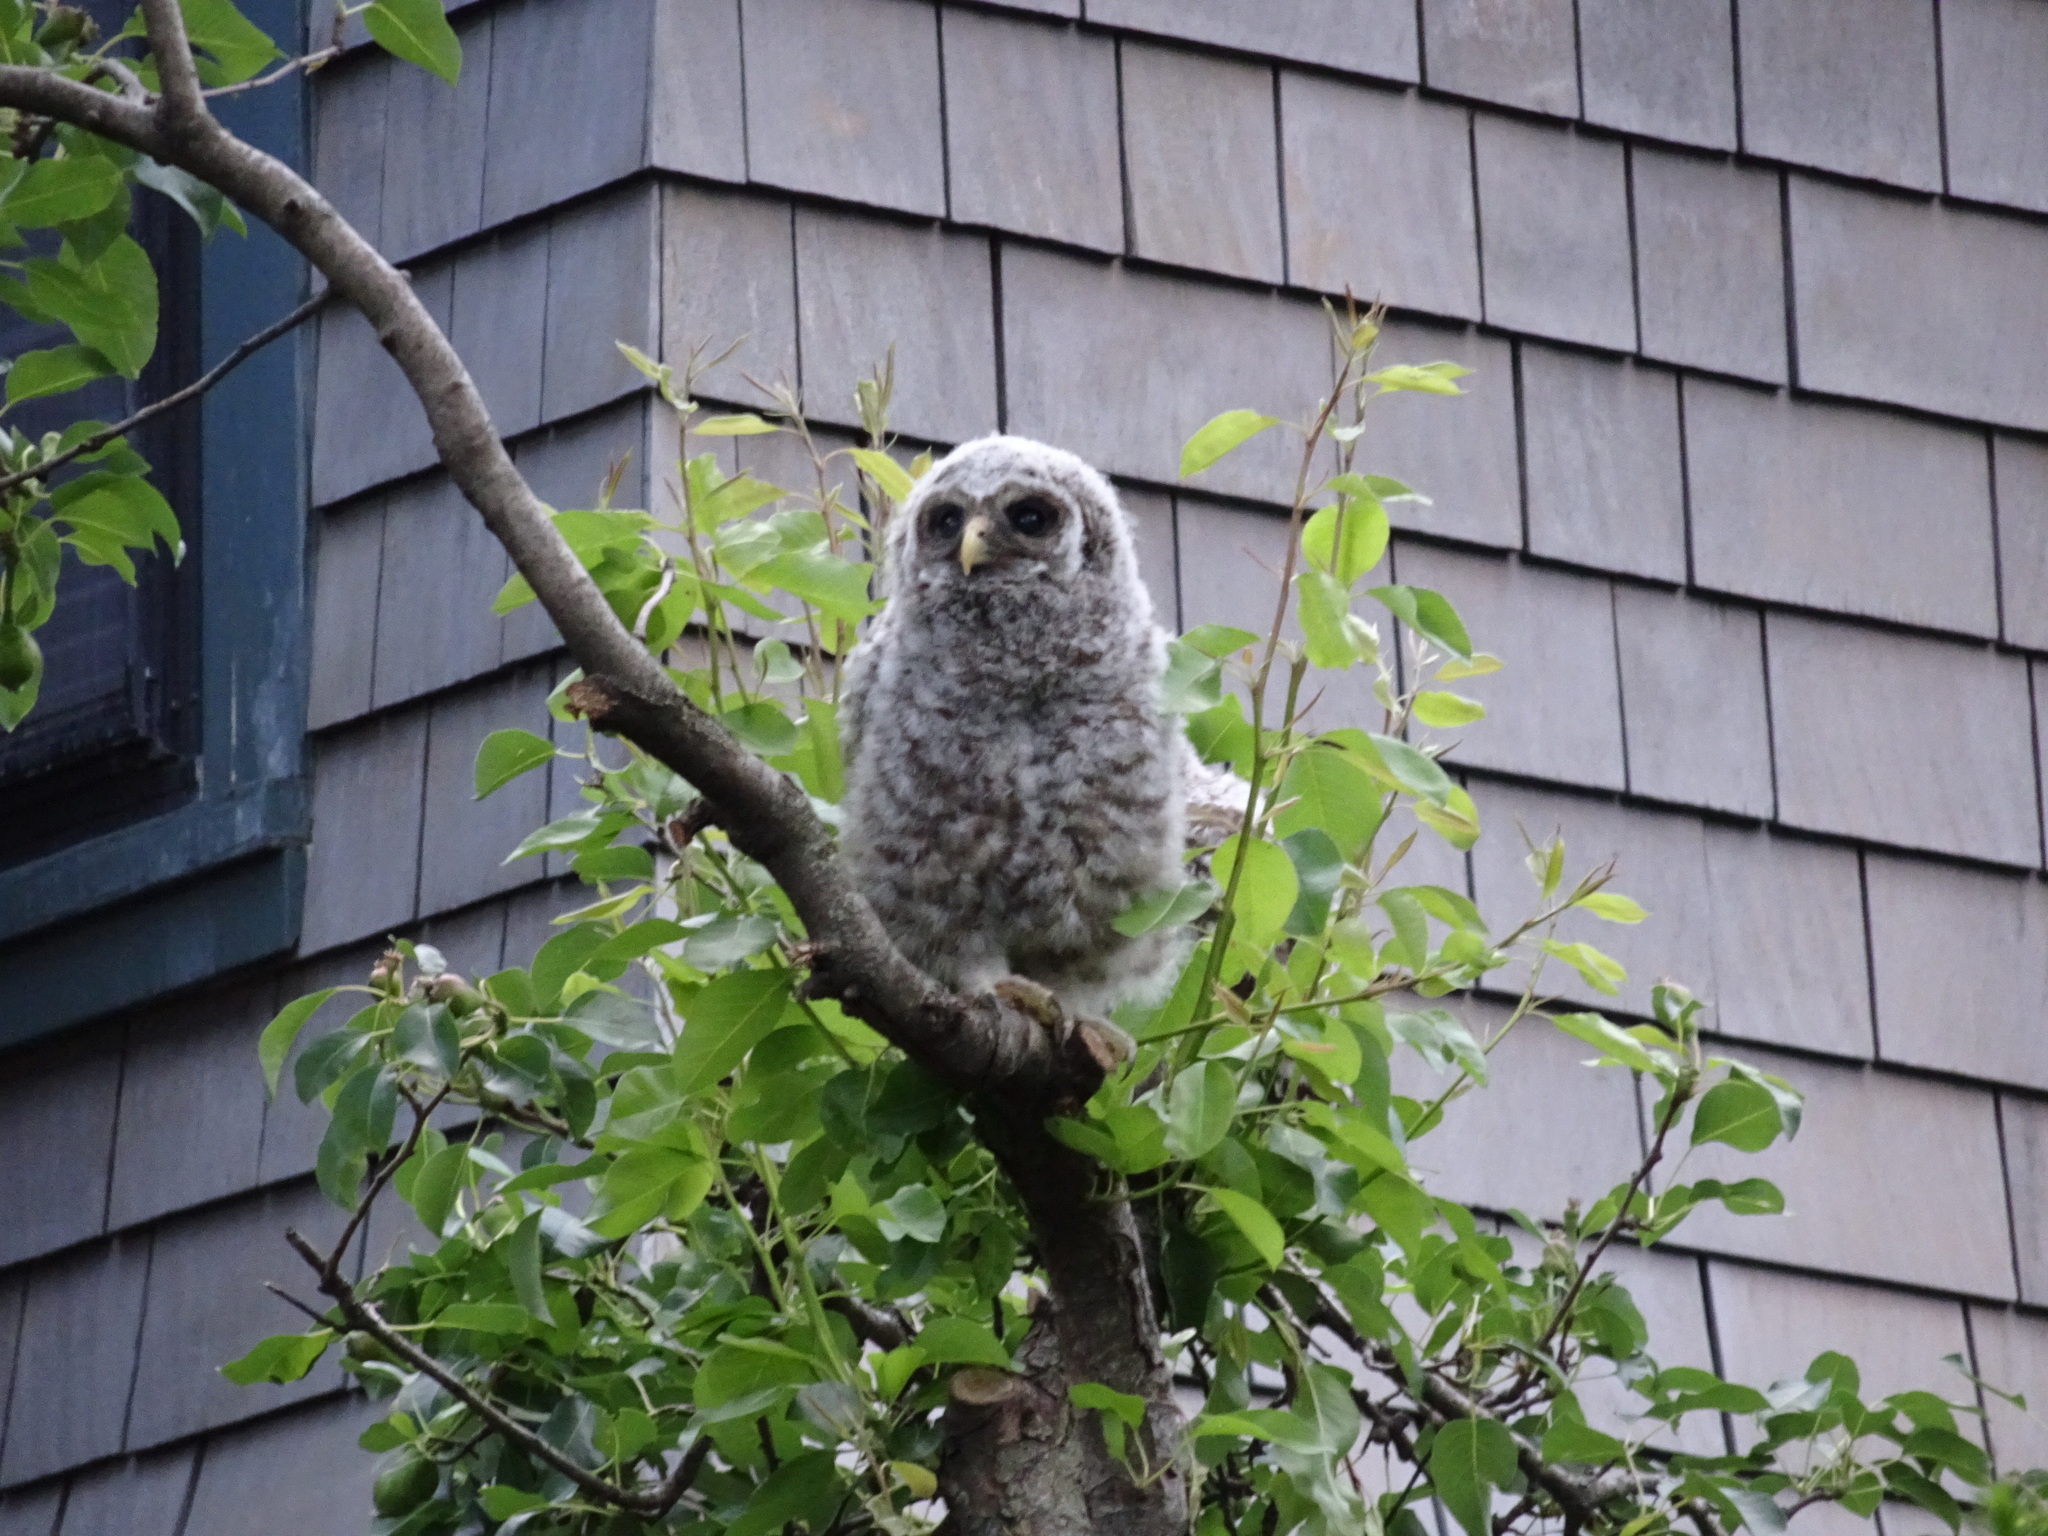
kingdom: Animalia
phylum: Chordata
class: Aves
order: Strigiformes
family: Strigidae
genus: Strix
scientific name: Strix varia
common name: Barred owl
